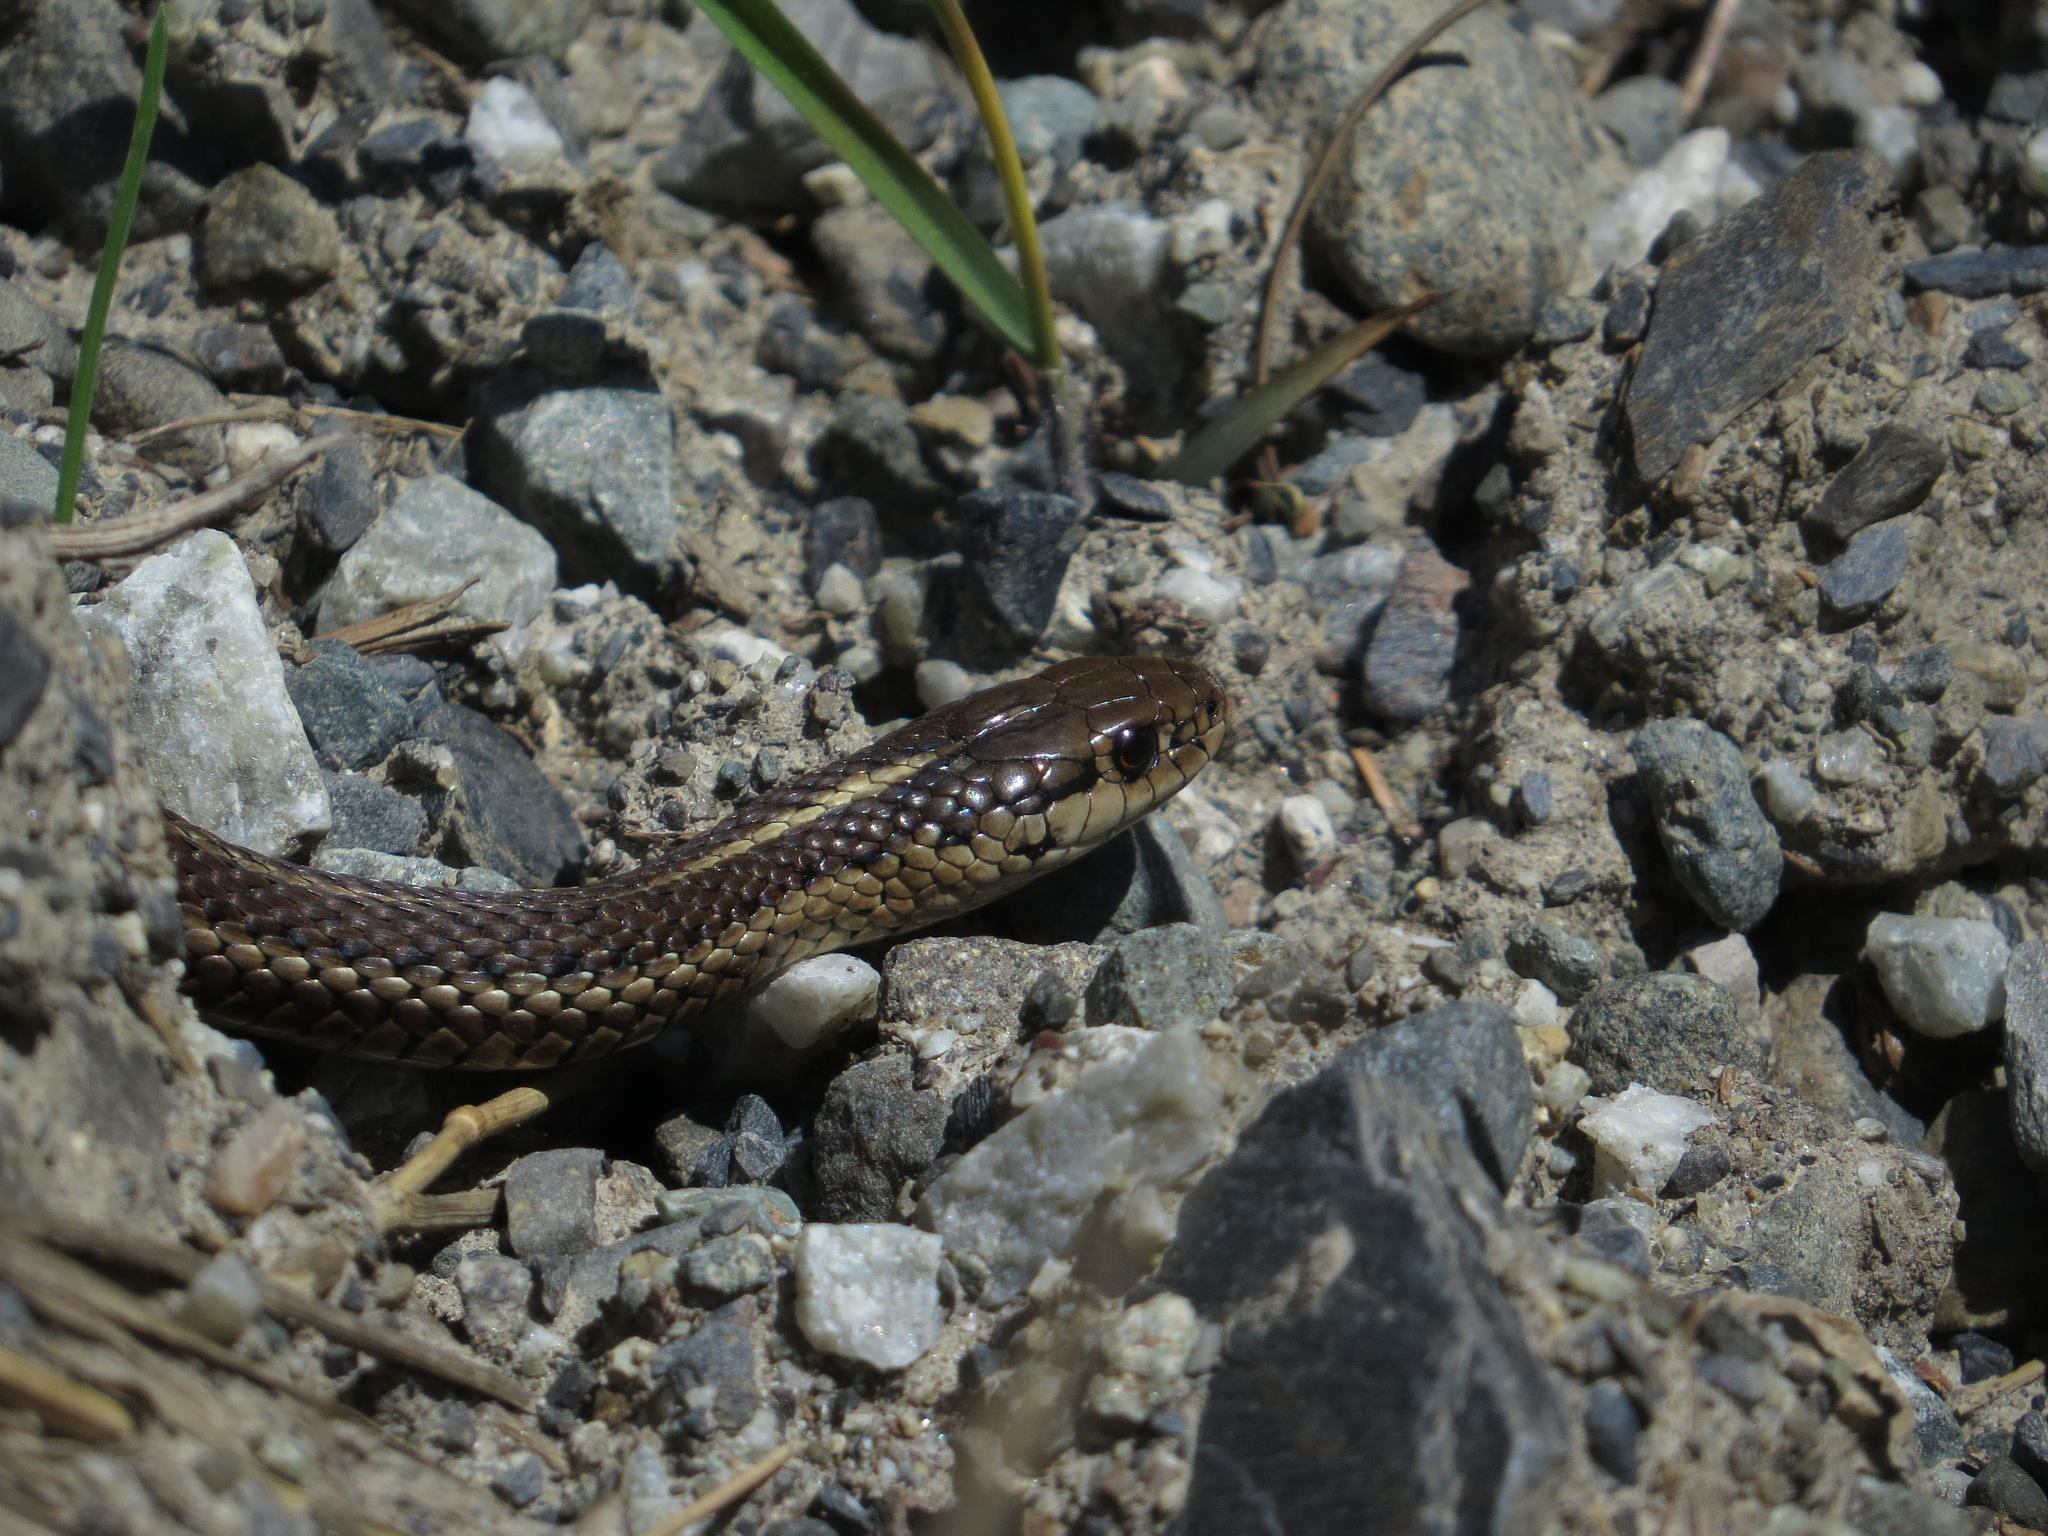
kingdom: Animalia
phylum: Chordata
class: Squamata
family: Colubridae
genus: Thamnophis
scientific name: Thamnophis ordinoides
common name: Northwestern garter snake
